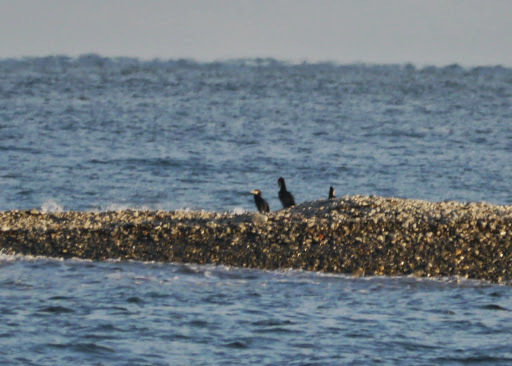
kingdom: Animalia
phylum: Chordata
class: Aves
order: Suliformes
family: Phalacrocoracidae
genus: Phalacrocorax
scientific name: Phalacrocorax carbo
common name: Great cormorant
